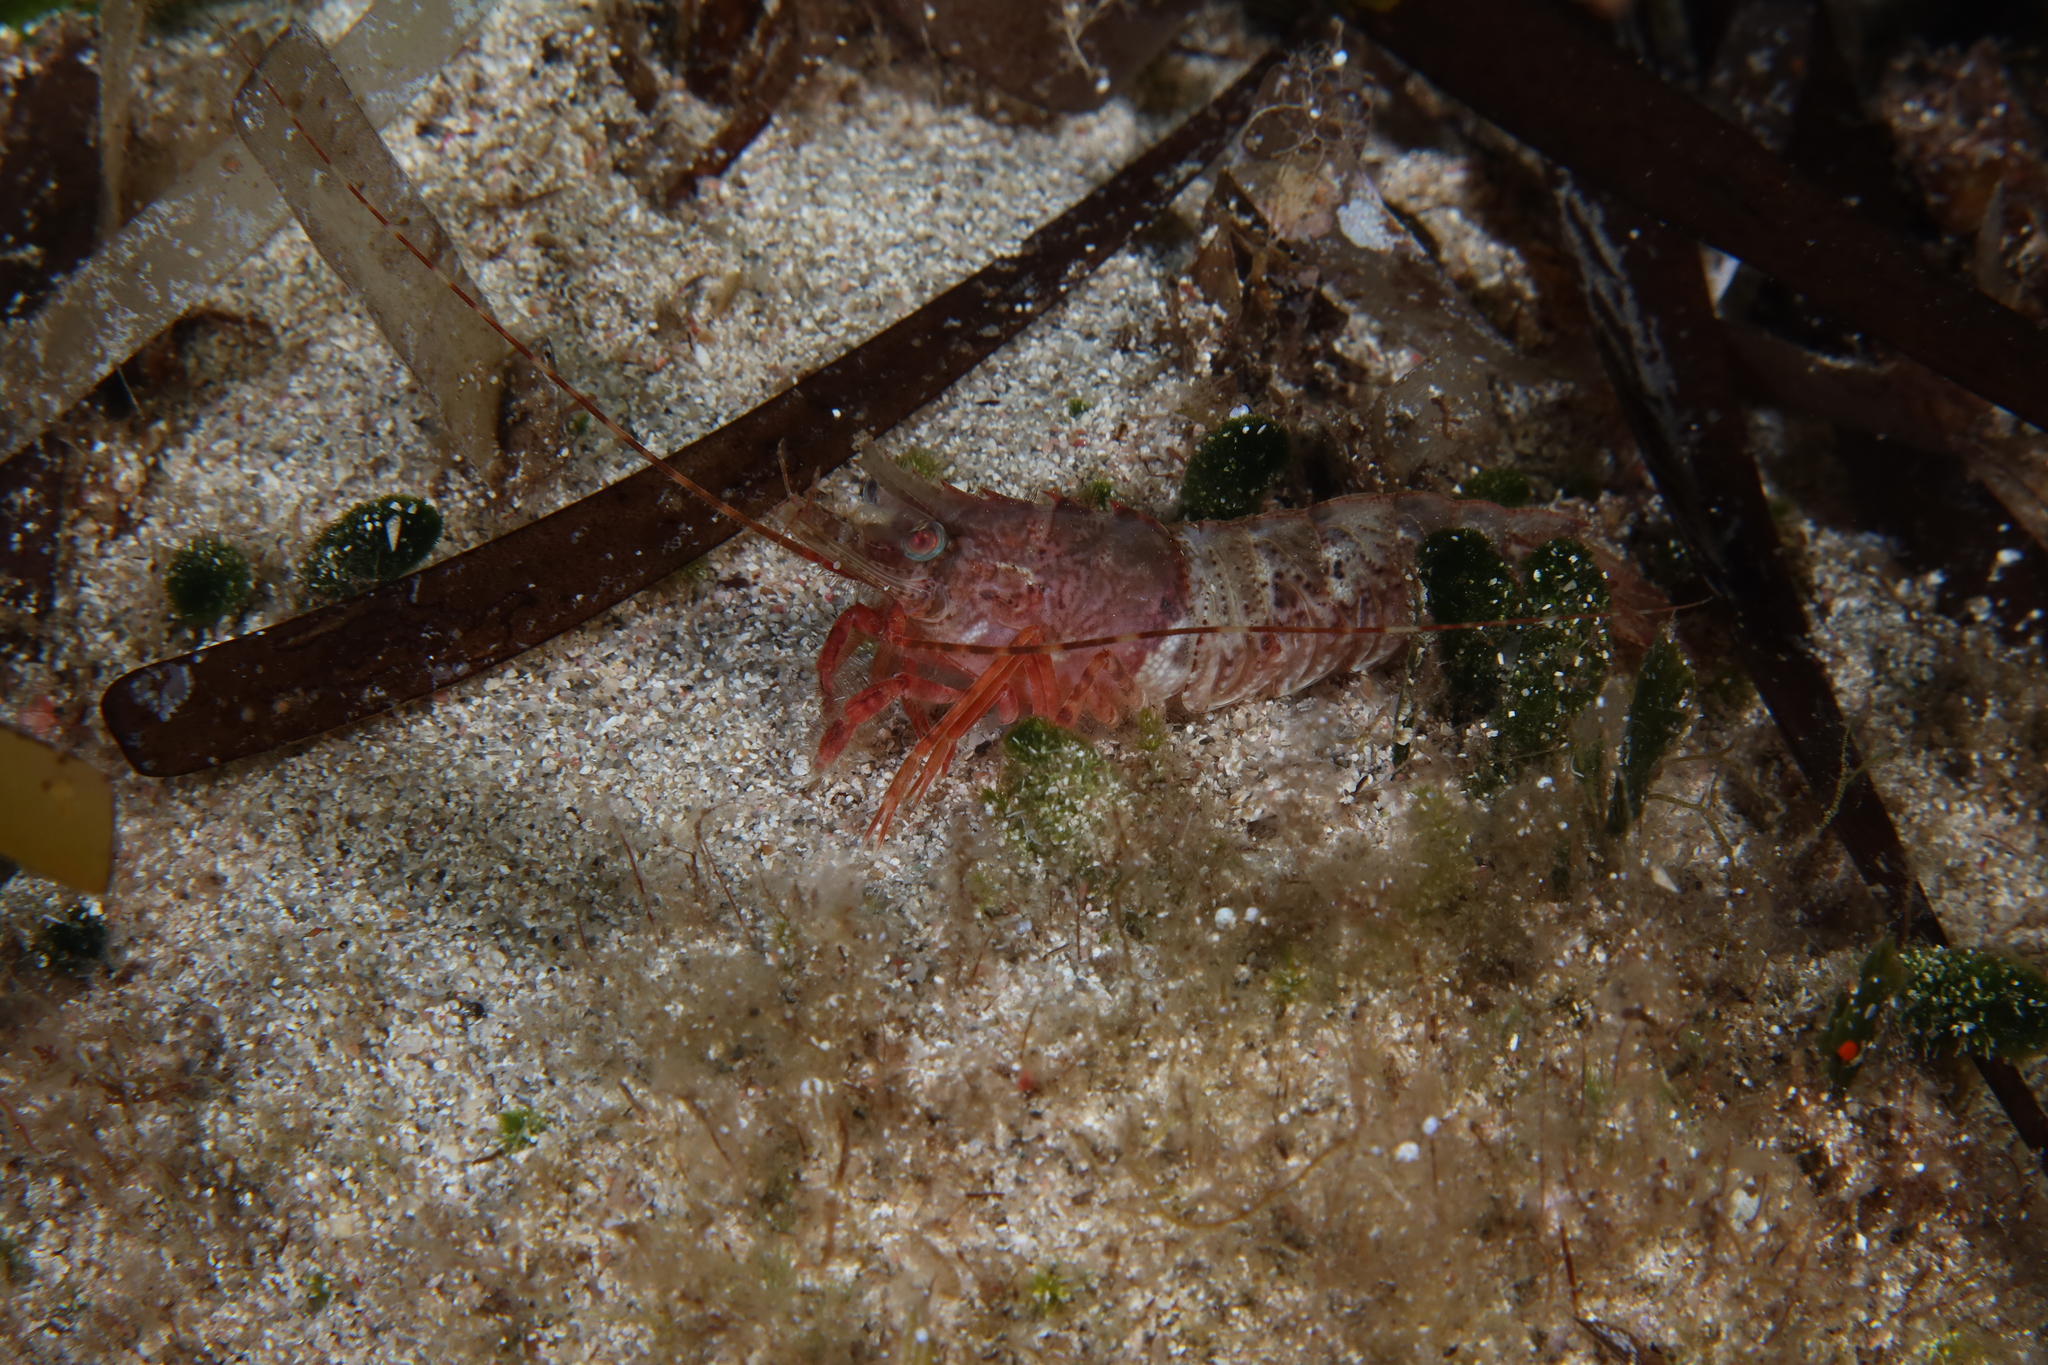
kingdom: Animalia
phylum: Arthropoda
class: Malacostraca
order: Decapoda
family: Sicyoniidae
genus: Sicyonia
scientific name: Sicyonia carinata
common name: Mediterranean rock shrimp
